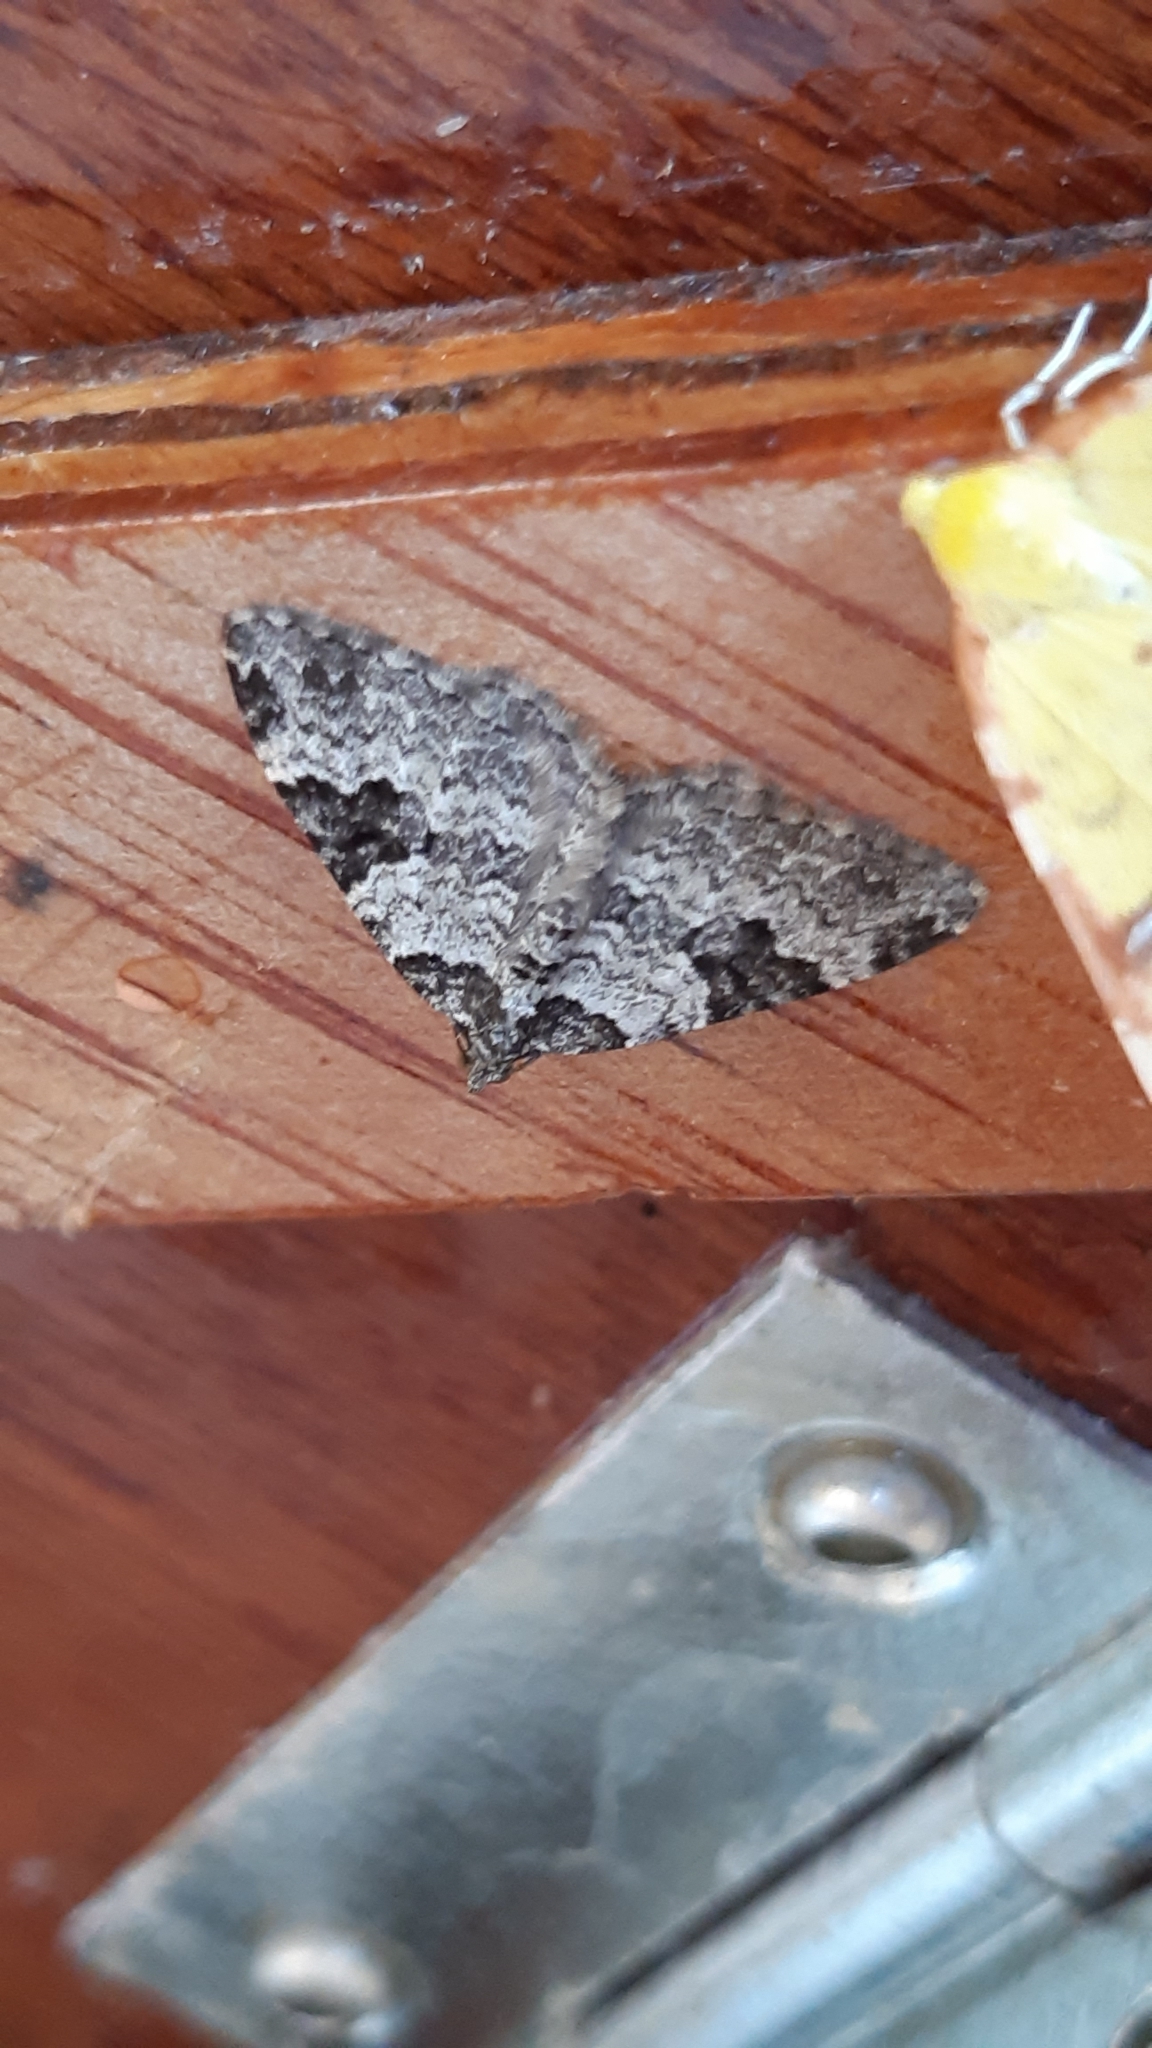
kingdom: Animalia
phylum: Arthropoda
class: Insecta
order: Lepidoptera
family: Geometridae
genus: Xanthorhoe
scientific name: Xanthorhoe fluctuata
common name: Garden carpet
